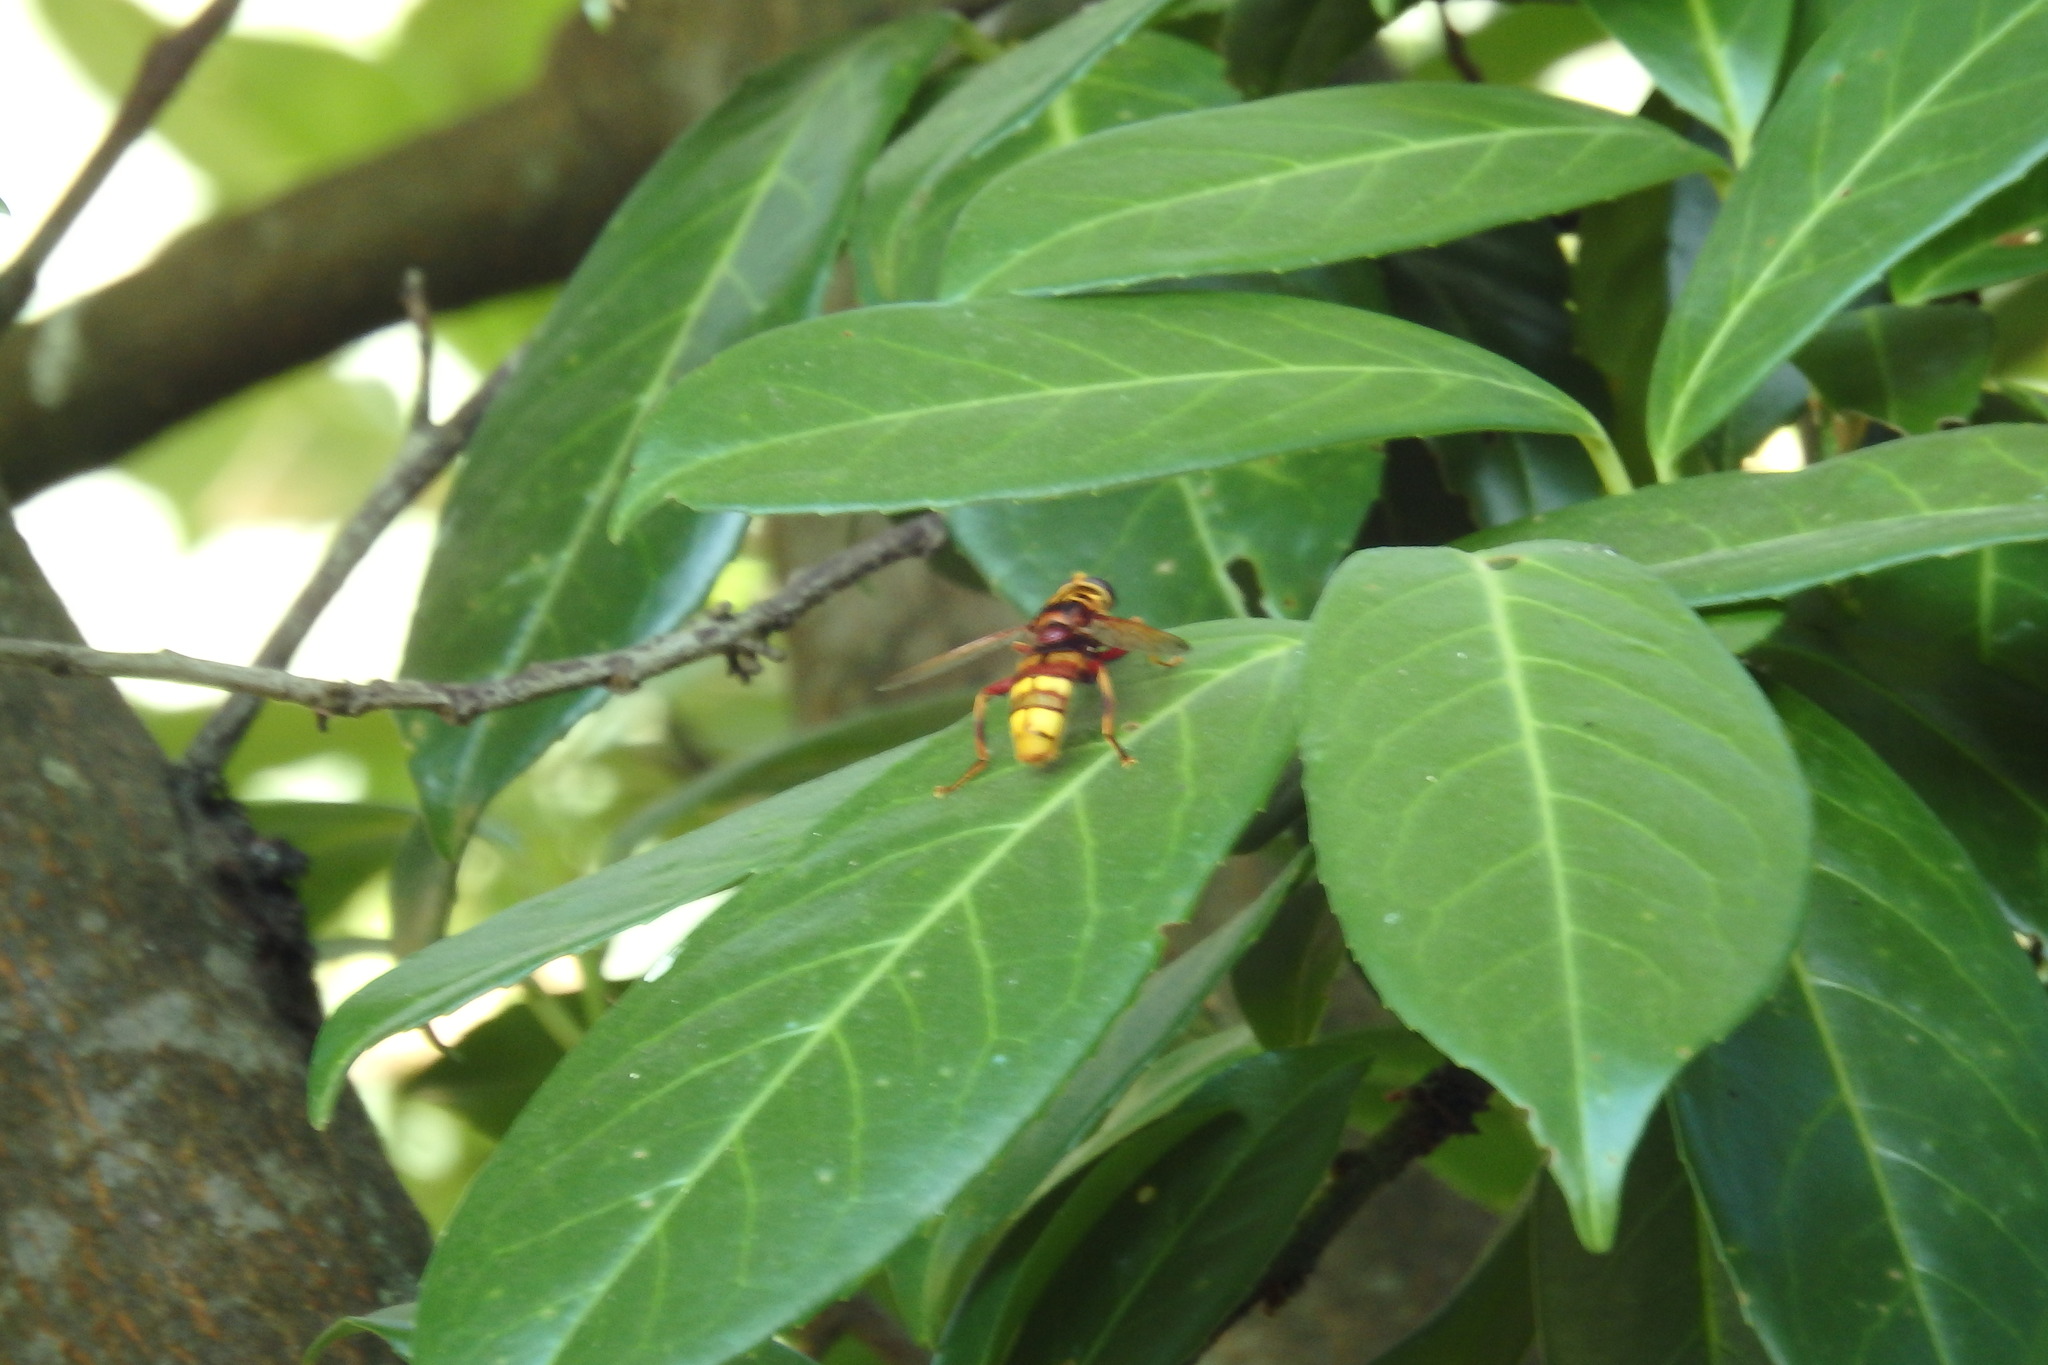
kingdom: Animalia
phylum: Arthropoda
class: Insecta
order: Diptera
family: Syrphidae
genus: Milesia
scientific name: Milesia crabroniformis
